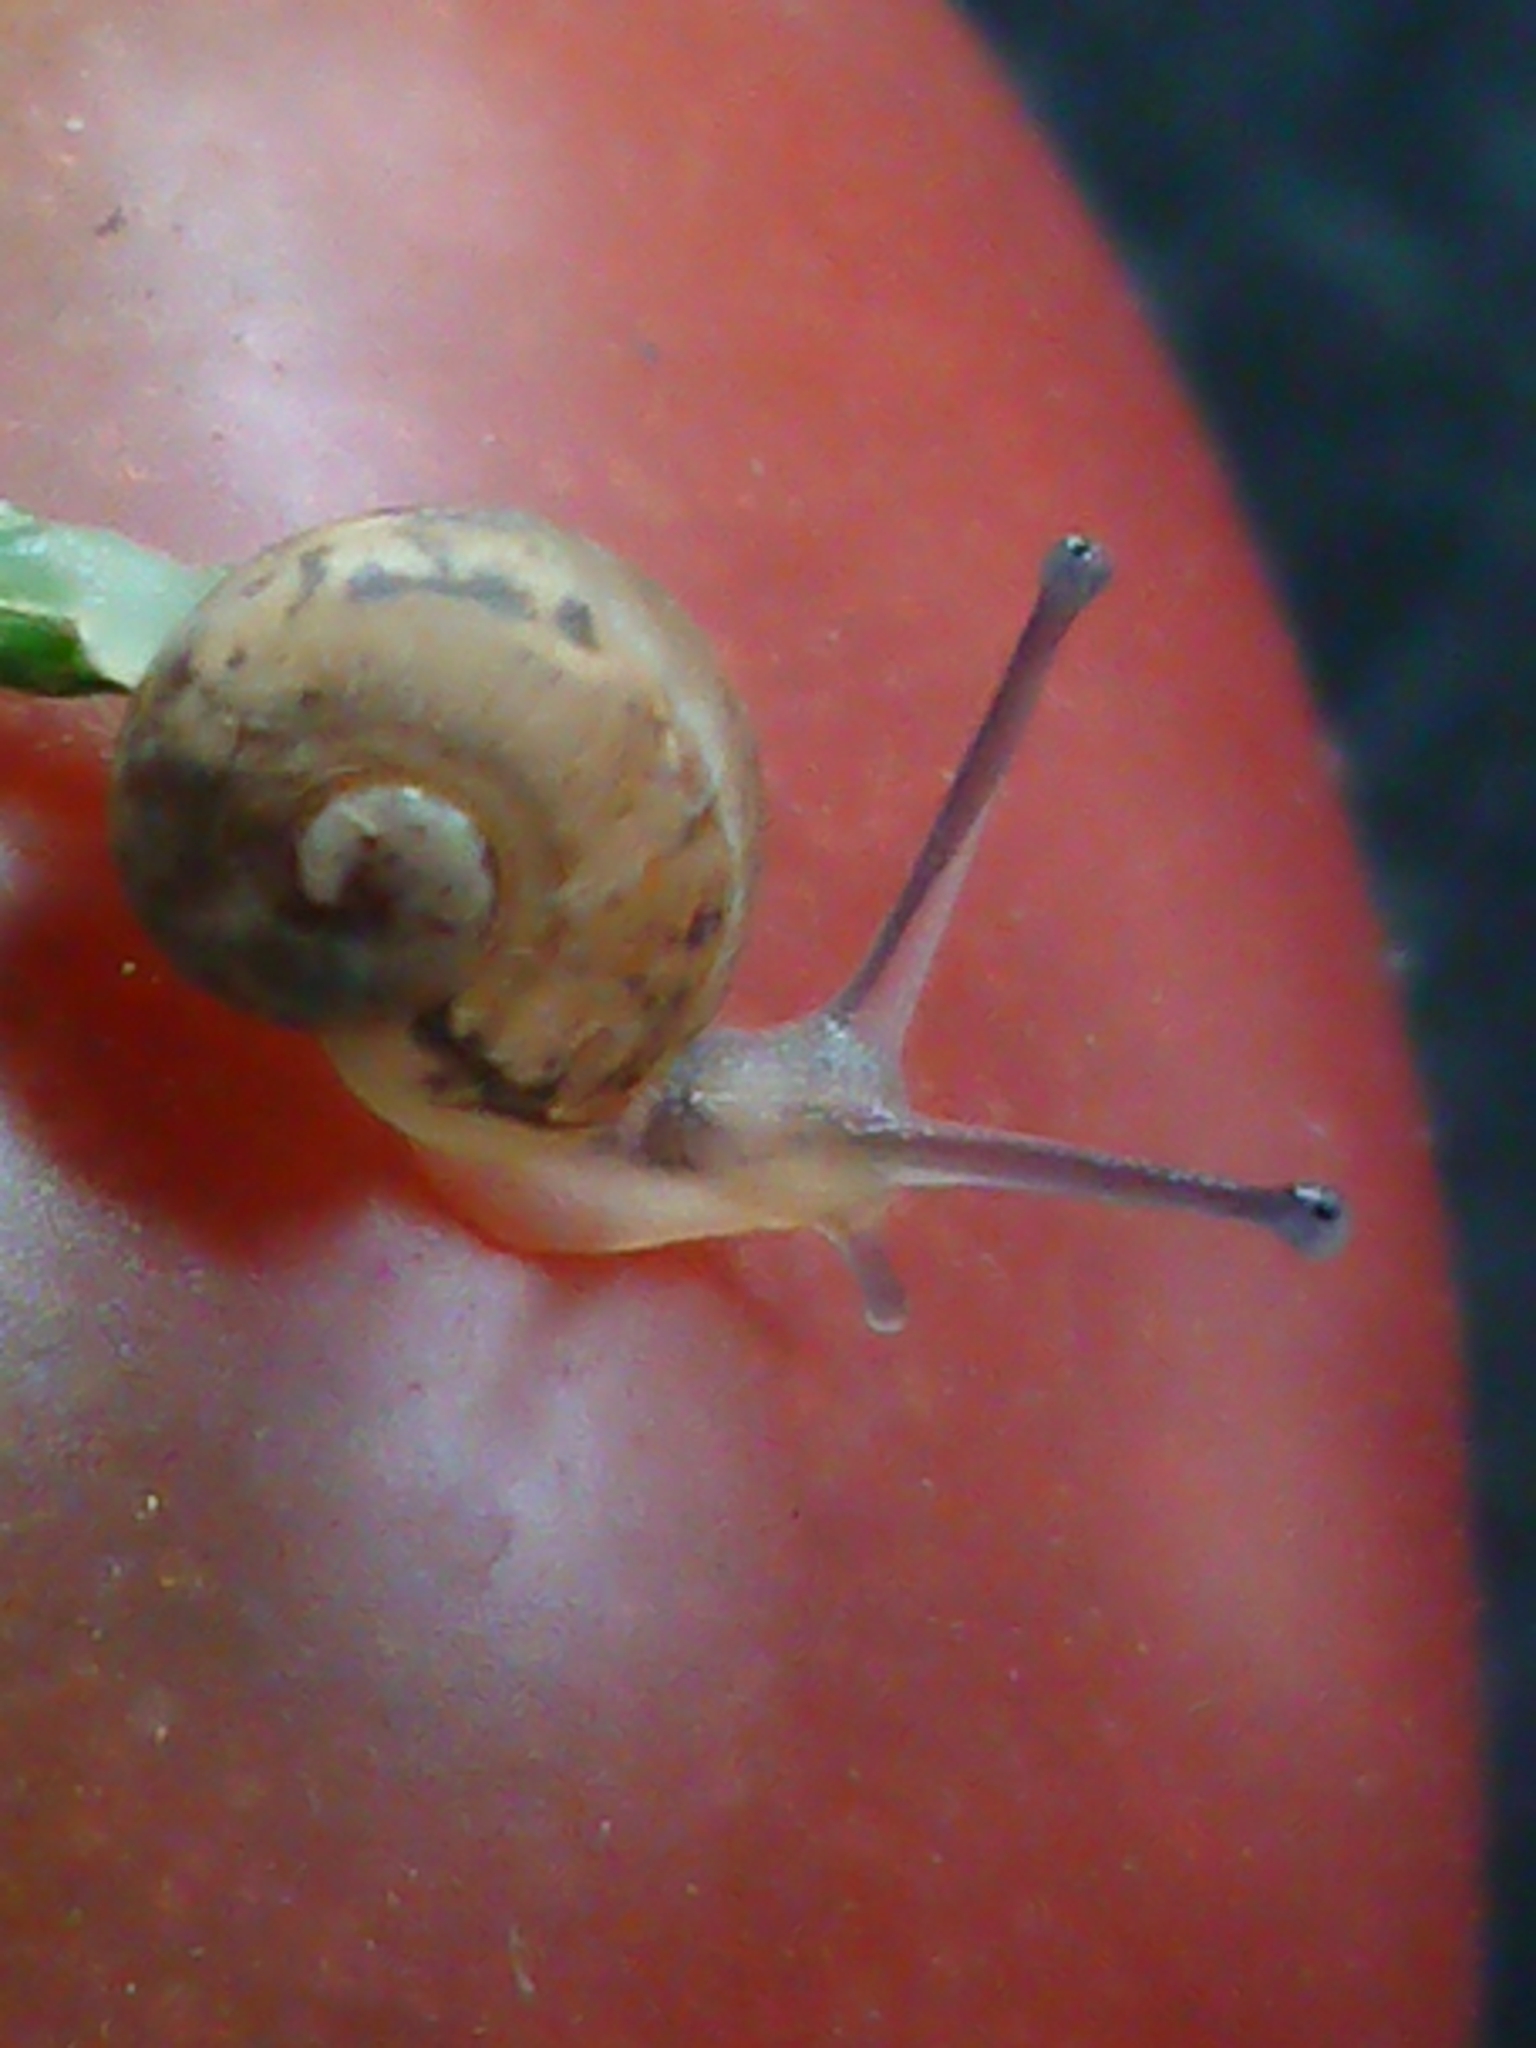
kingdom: Animalia
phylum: Mollusca
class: Gastropoda
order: Stylommatophora
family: Helicidae
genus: Cornu
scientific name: Cornu aspersum
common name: Brown garden snail
